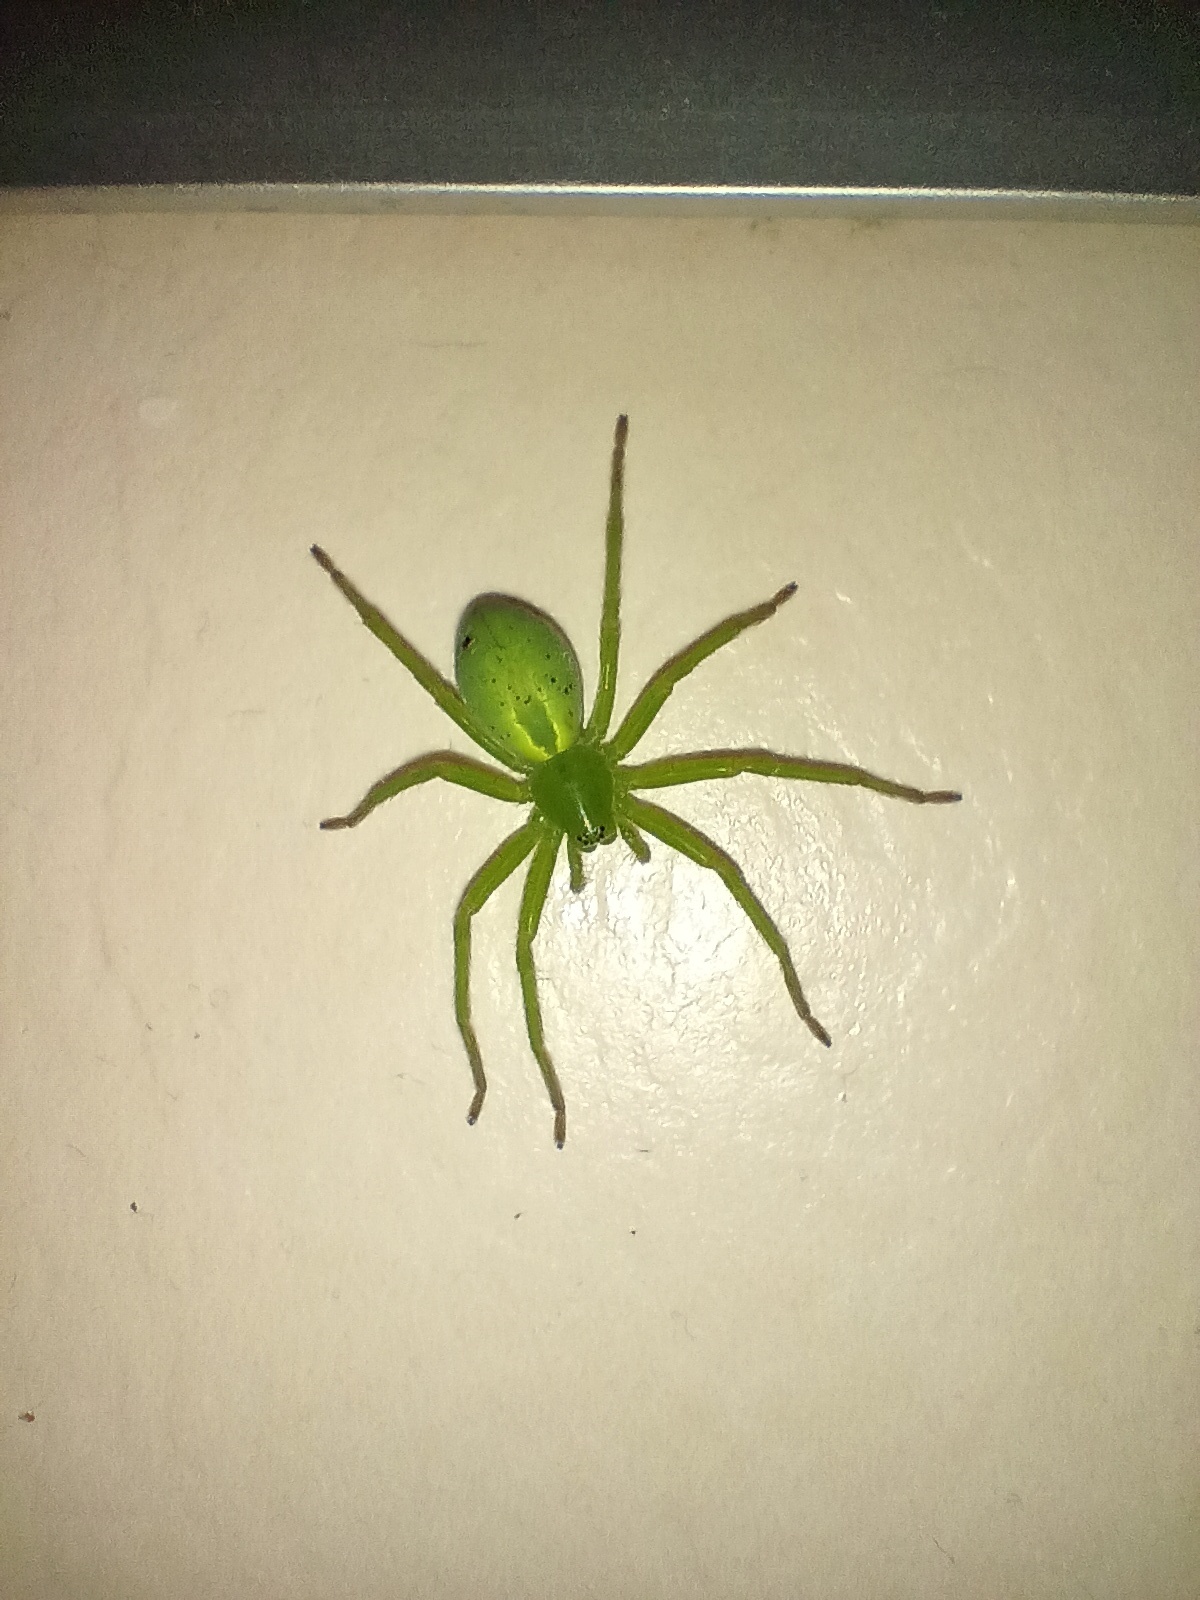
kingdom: Animalia
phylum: Arthropoda
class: Arachnida
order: Araneae
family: Sparassidae
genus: Micrommata
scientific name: Micrommata virescens
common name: Green spider
